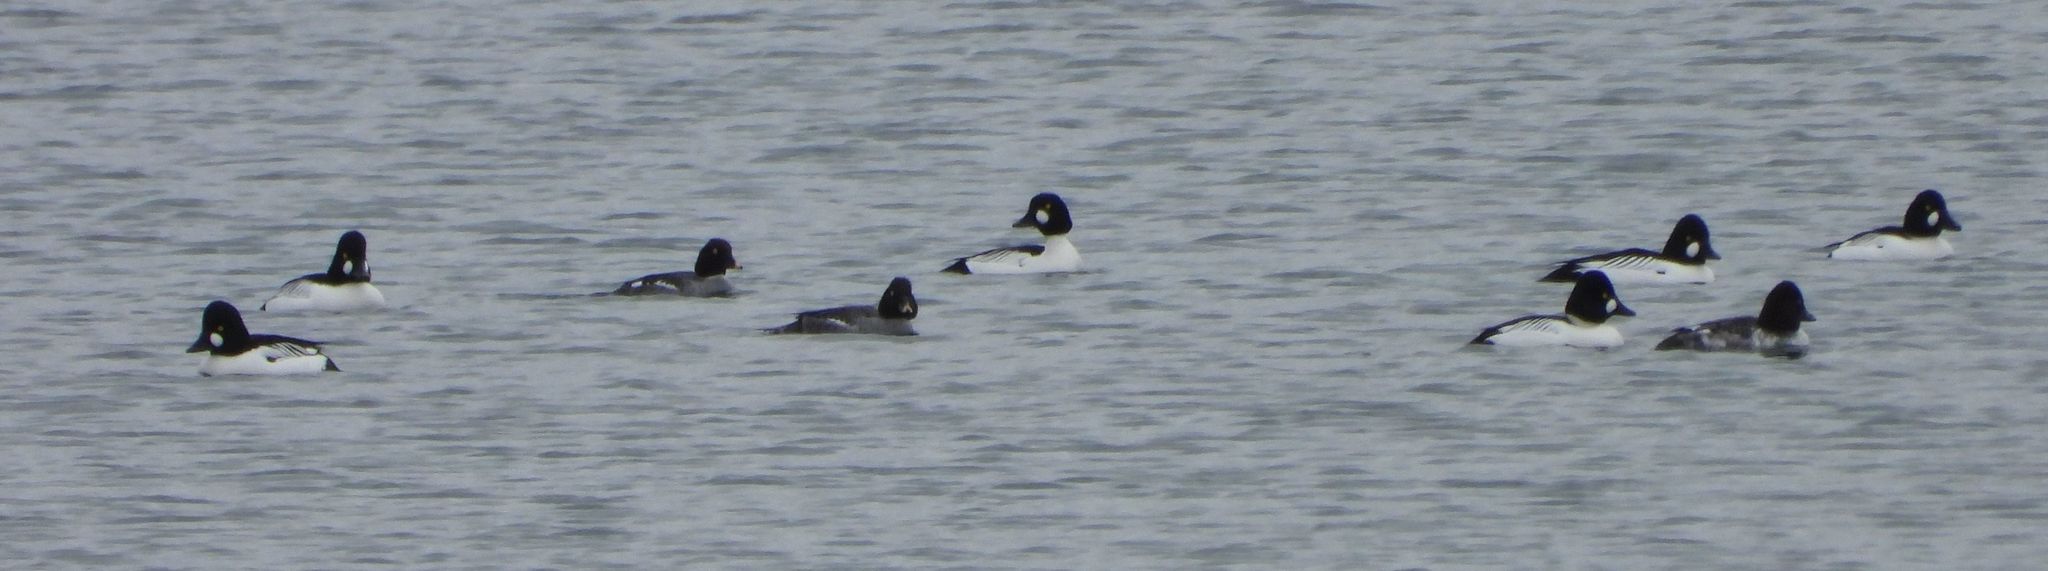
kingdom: Animalia
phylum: Chordata
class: Aves
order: Anseriformes
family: Anatidae
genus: Bucephala
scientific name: Bucephala clangula
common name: Common goldeneye
